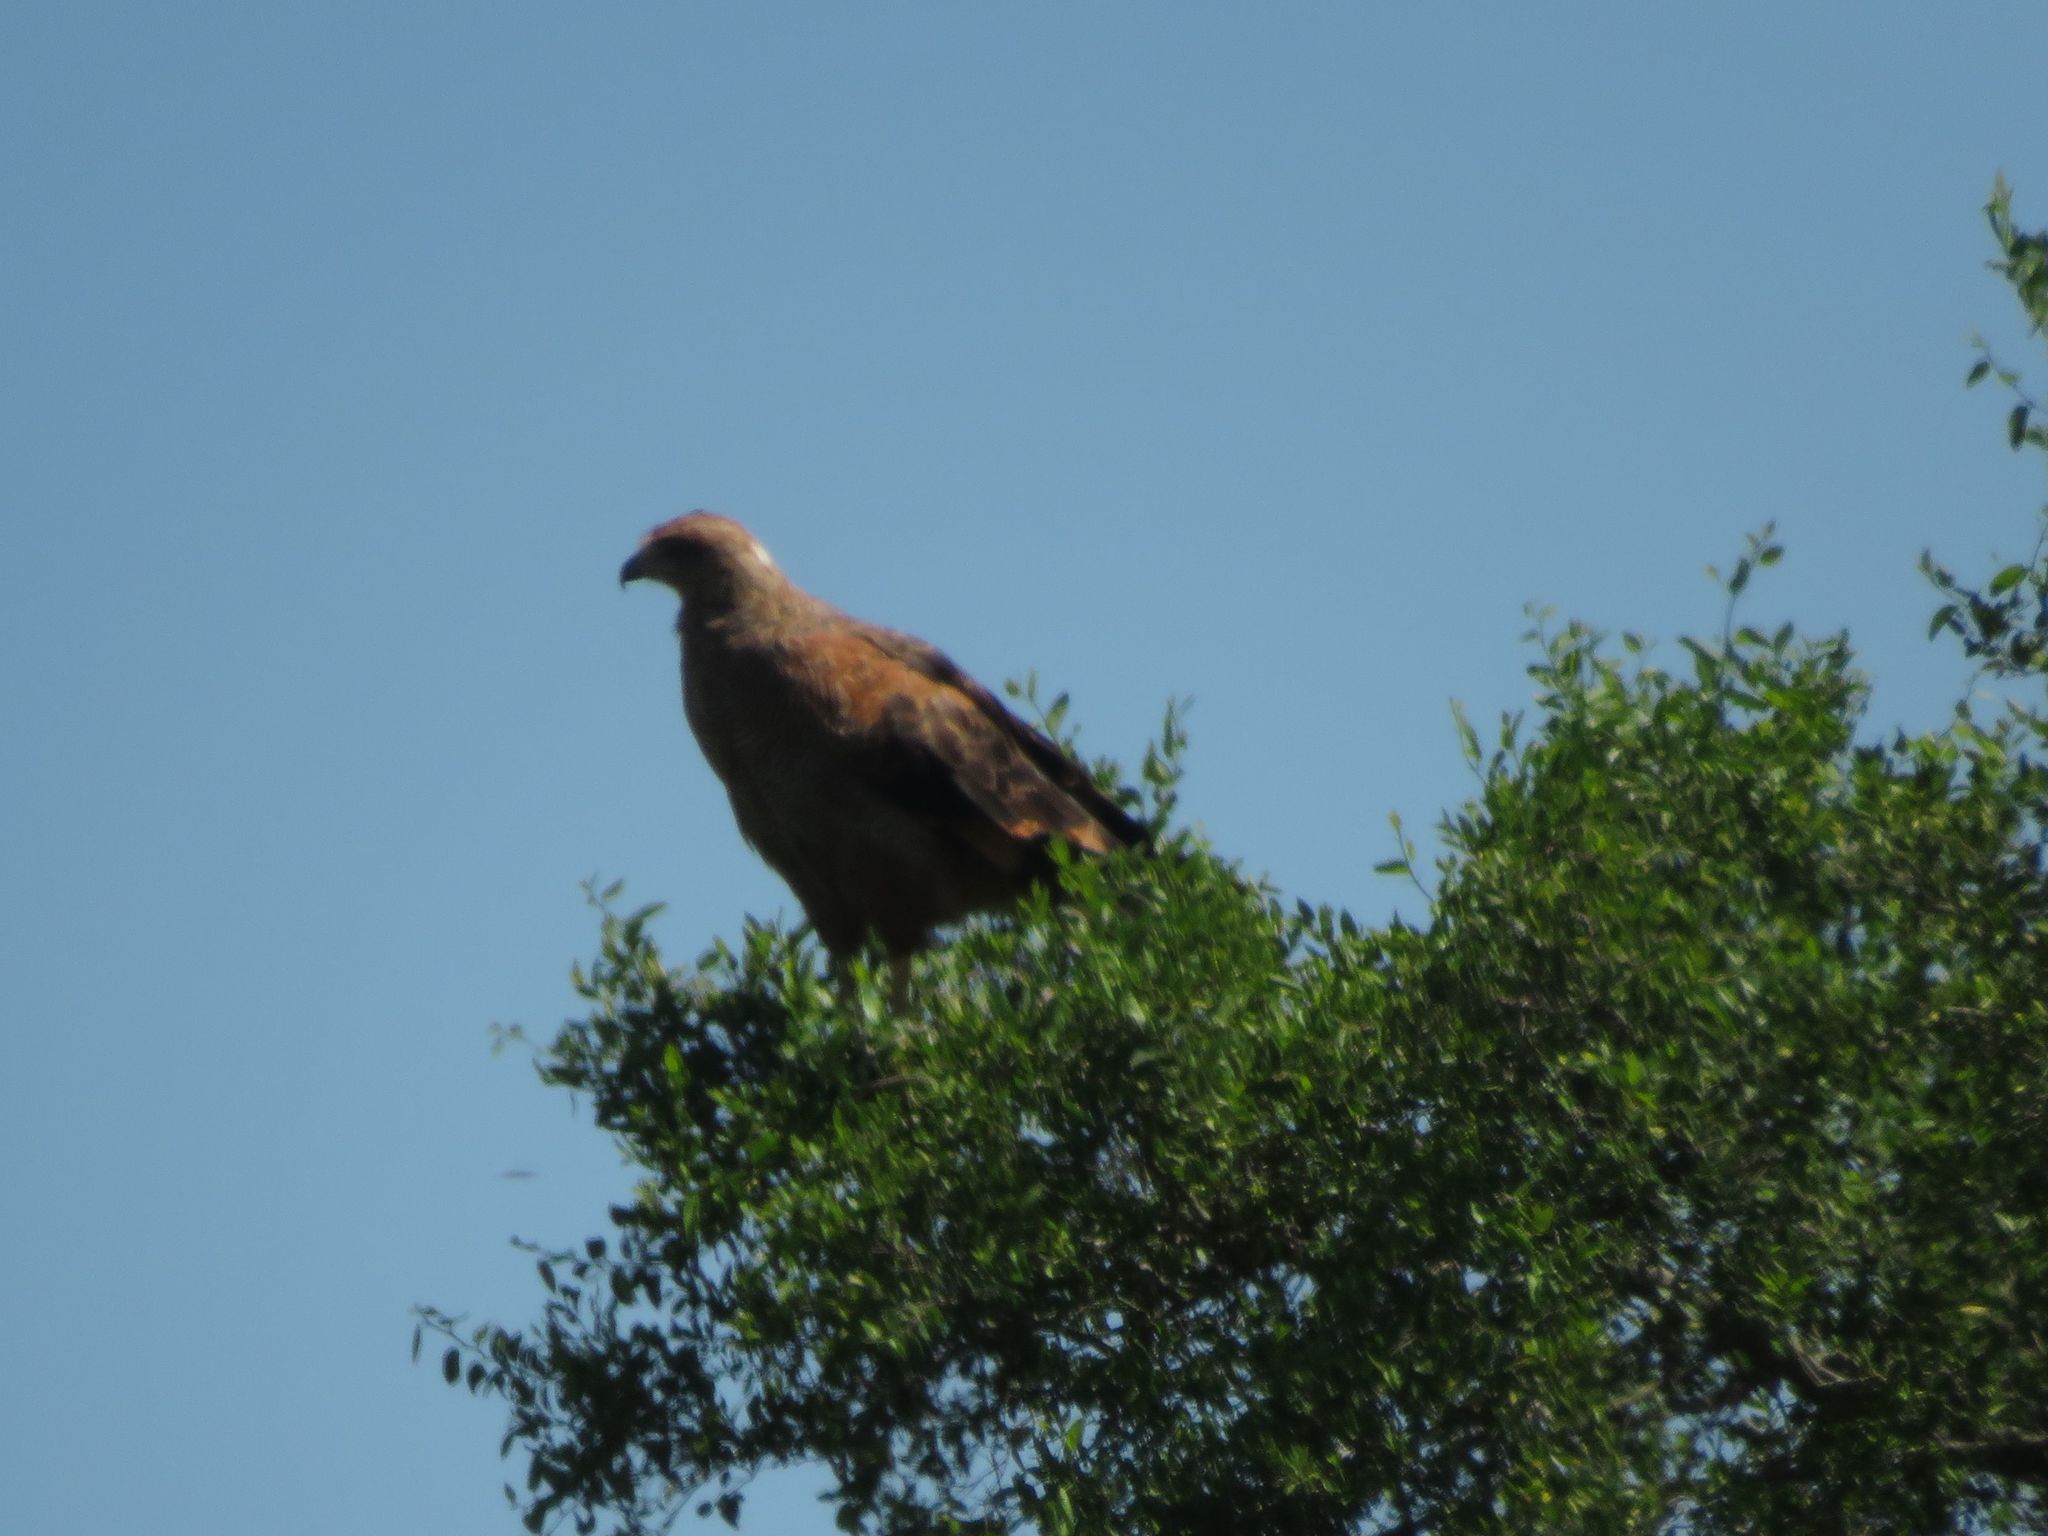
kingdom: Animalia
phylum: Chordata
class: Aves
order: Accipitriformes
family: Accipitridae
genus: Buteogallus
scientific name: Buteogallus meridionalis
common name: Savanna hawk
